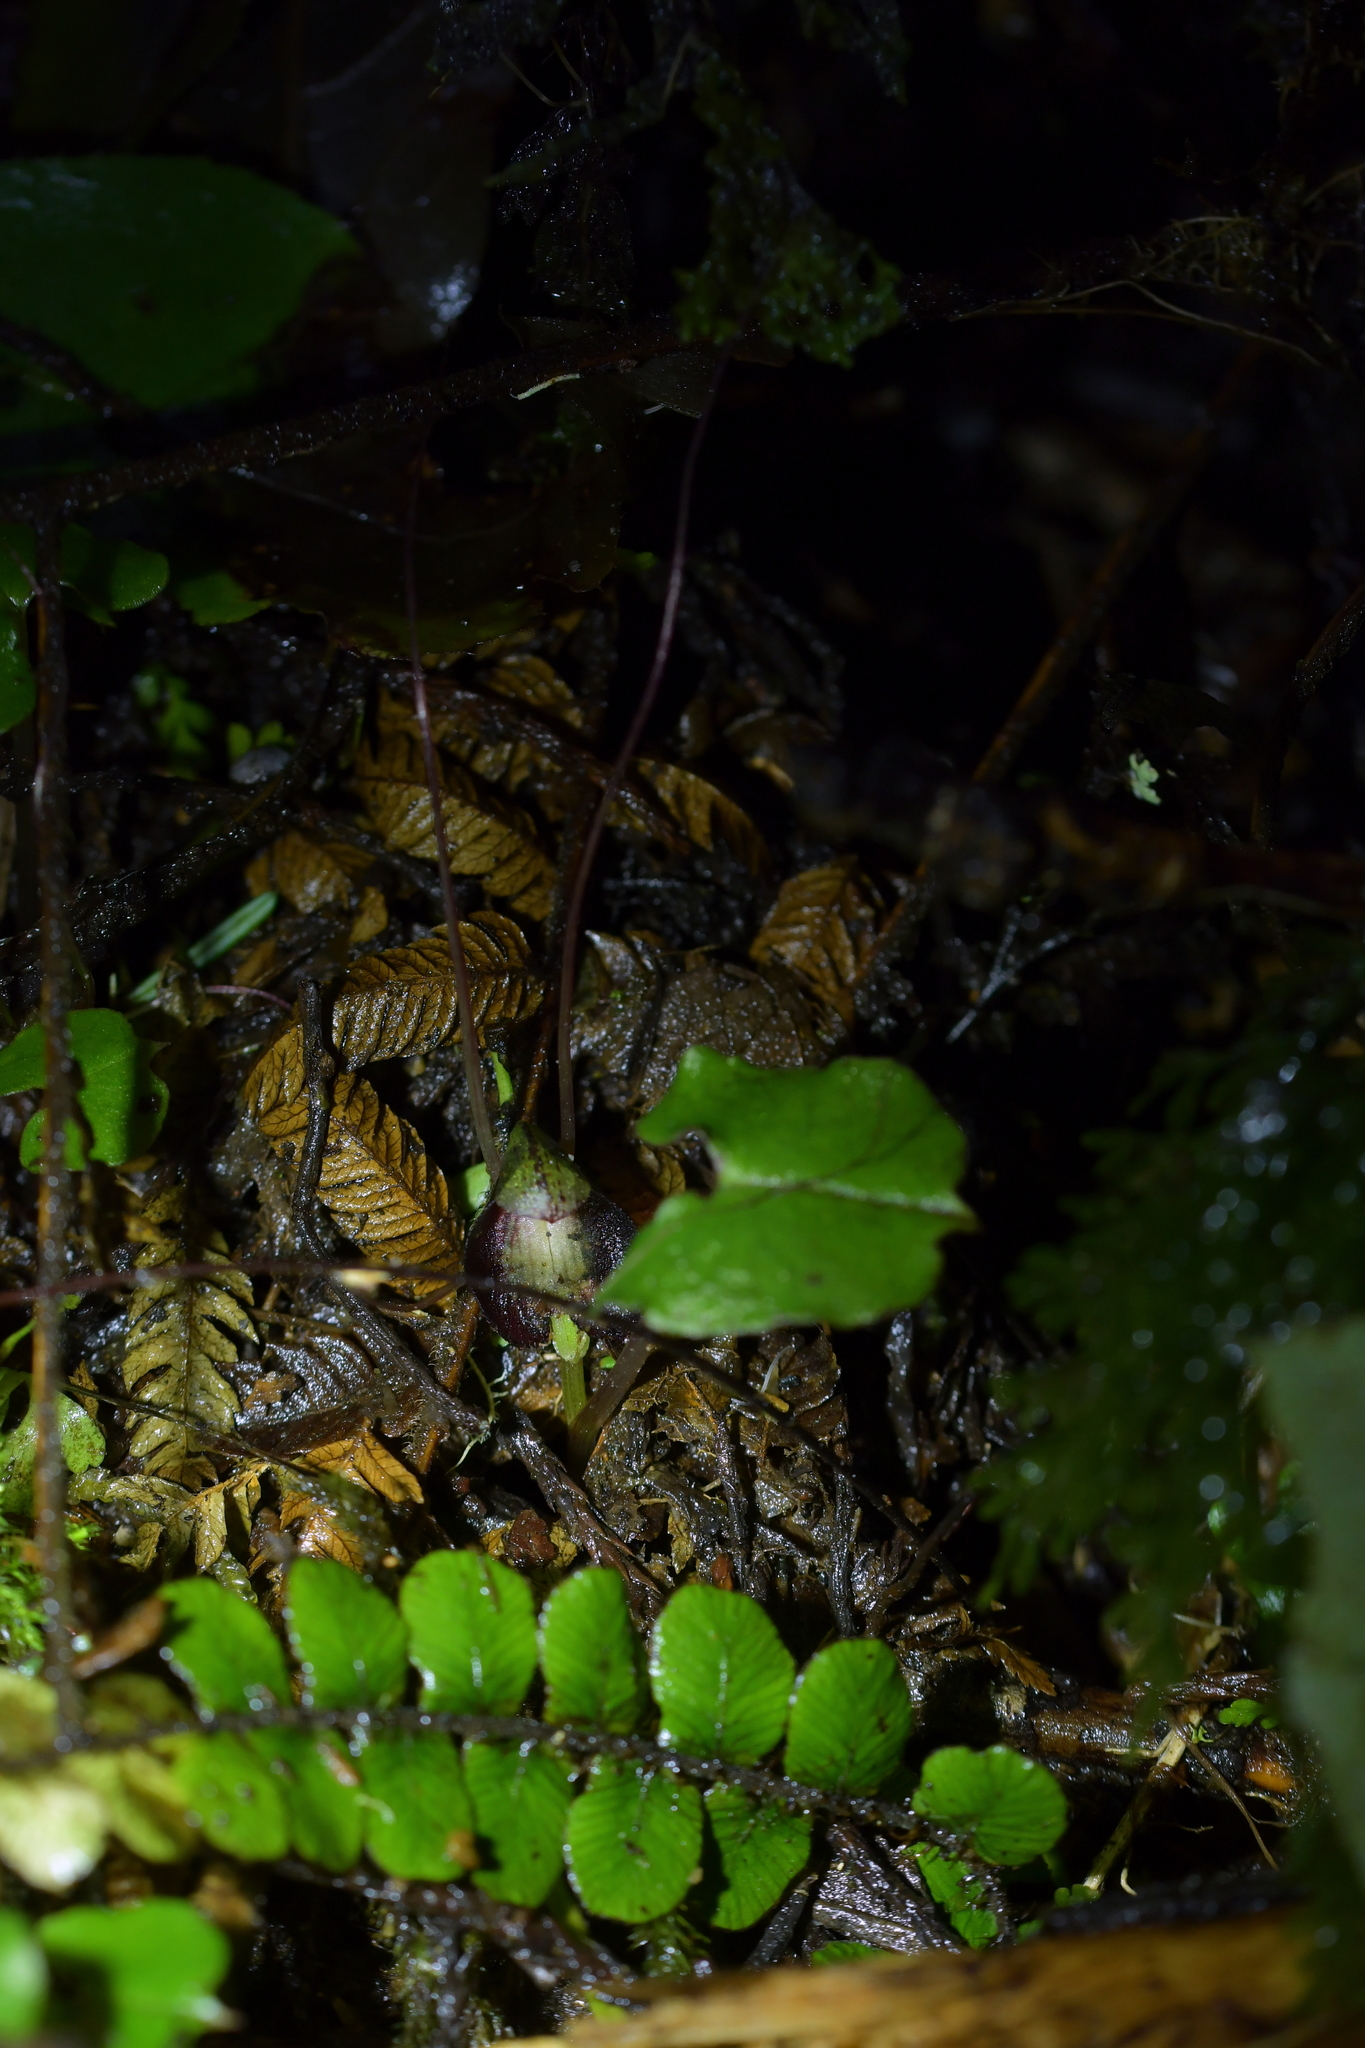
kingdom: Plantae
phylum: Tracheophyta
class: Liliopsida
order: Asparagales
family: Orchidaceae
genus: Corybas
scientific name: Corybas sanctigeorgianus
